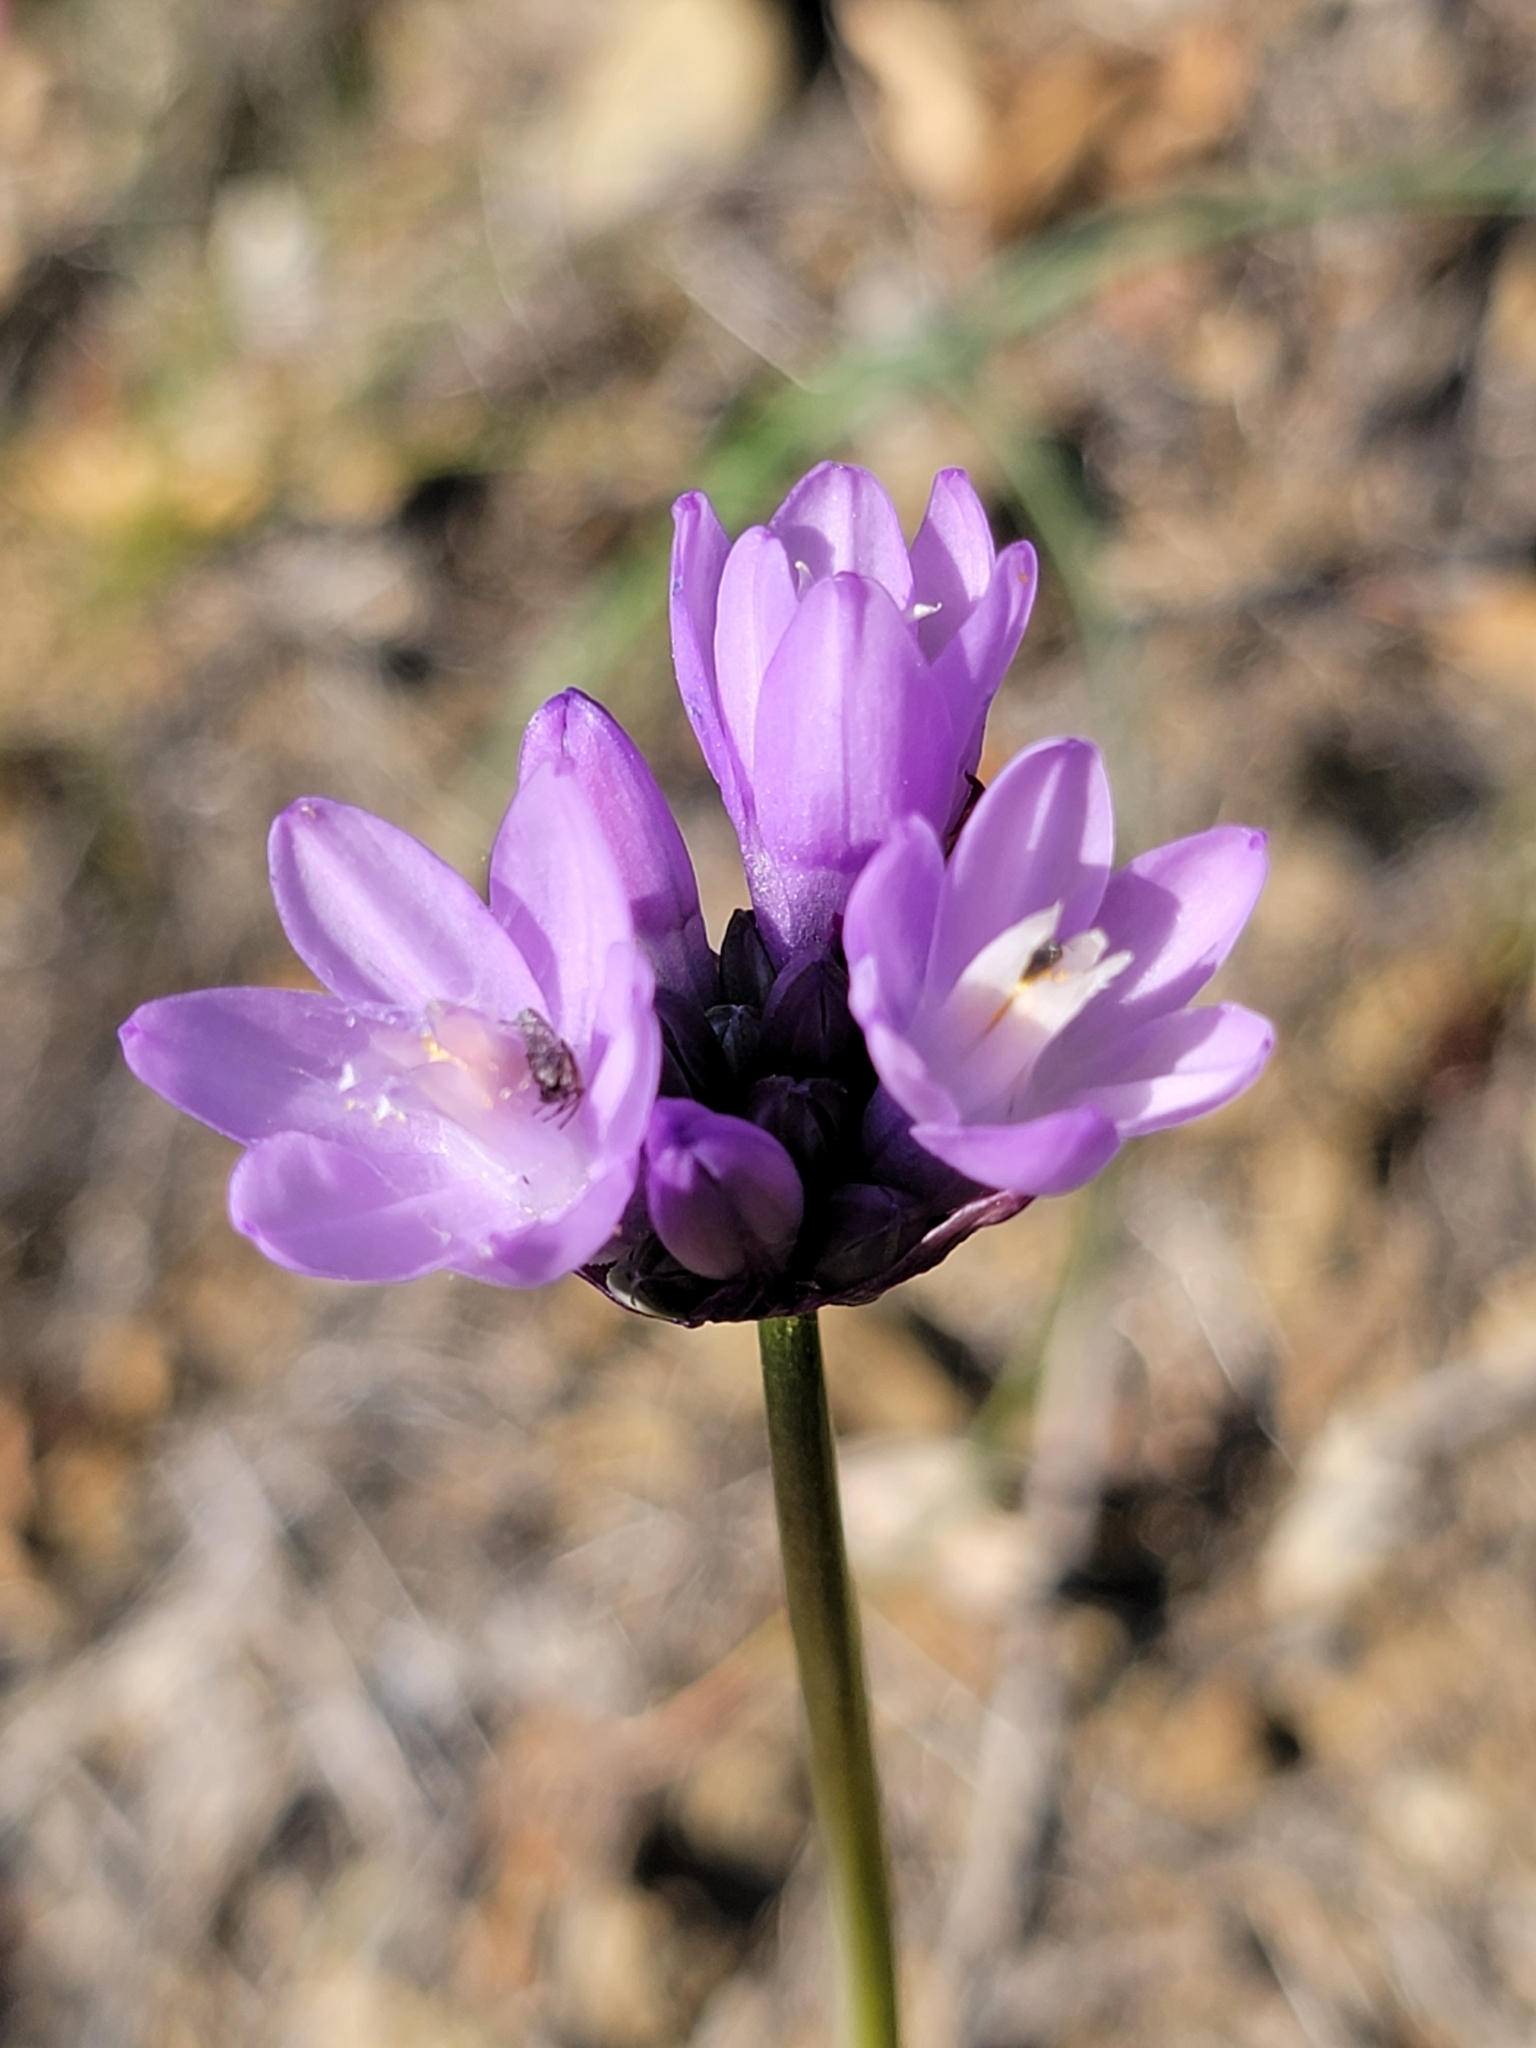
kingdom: Plantae
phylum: Tracheophyta
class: Liliopsida
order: Asparagales
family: Asparagaceae
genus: Dipterostemon
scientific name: Dipterostemon capitatus
